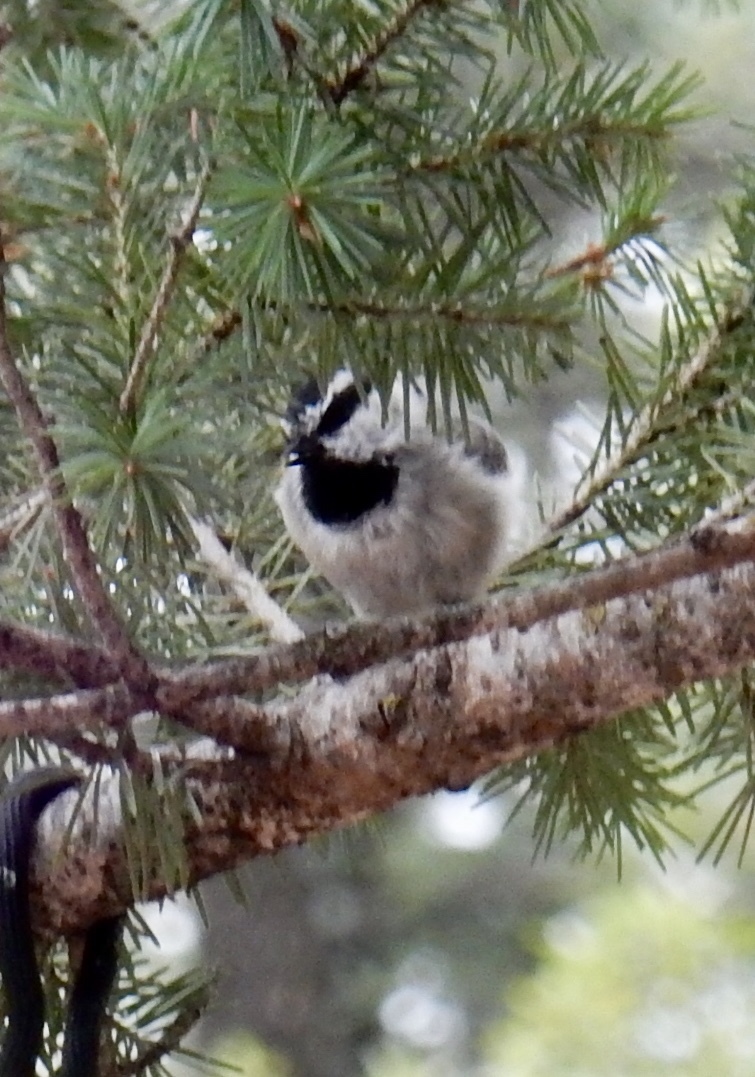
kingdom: Animalia
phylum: Chordata
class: Aves
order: Passeriformes
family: Paridae
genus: Poecile
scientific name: Poecile gambeli
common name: Mountain chickadee
